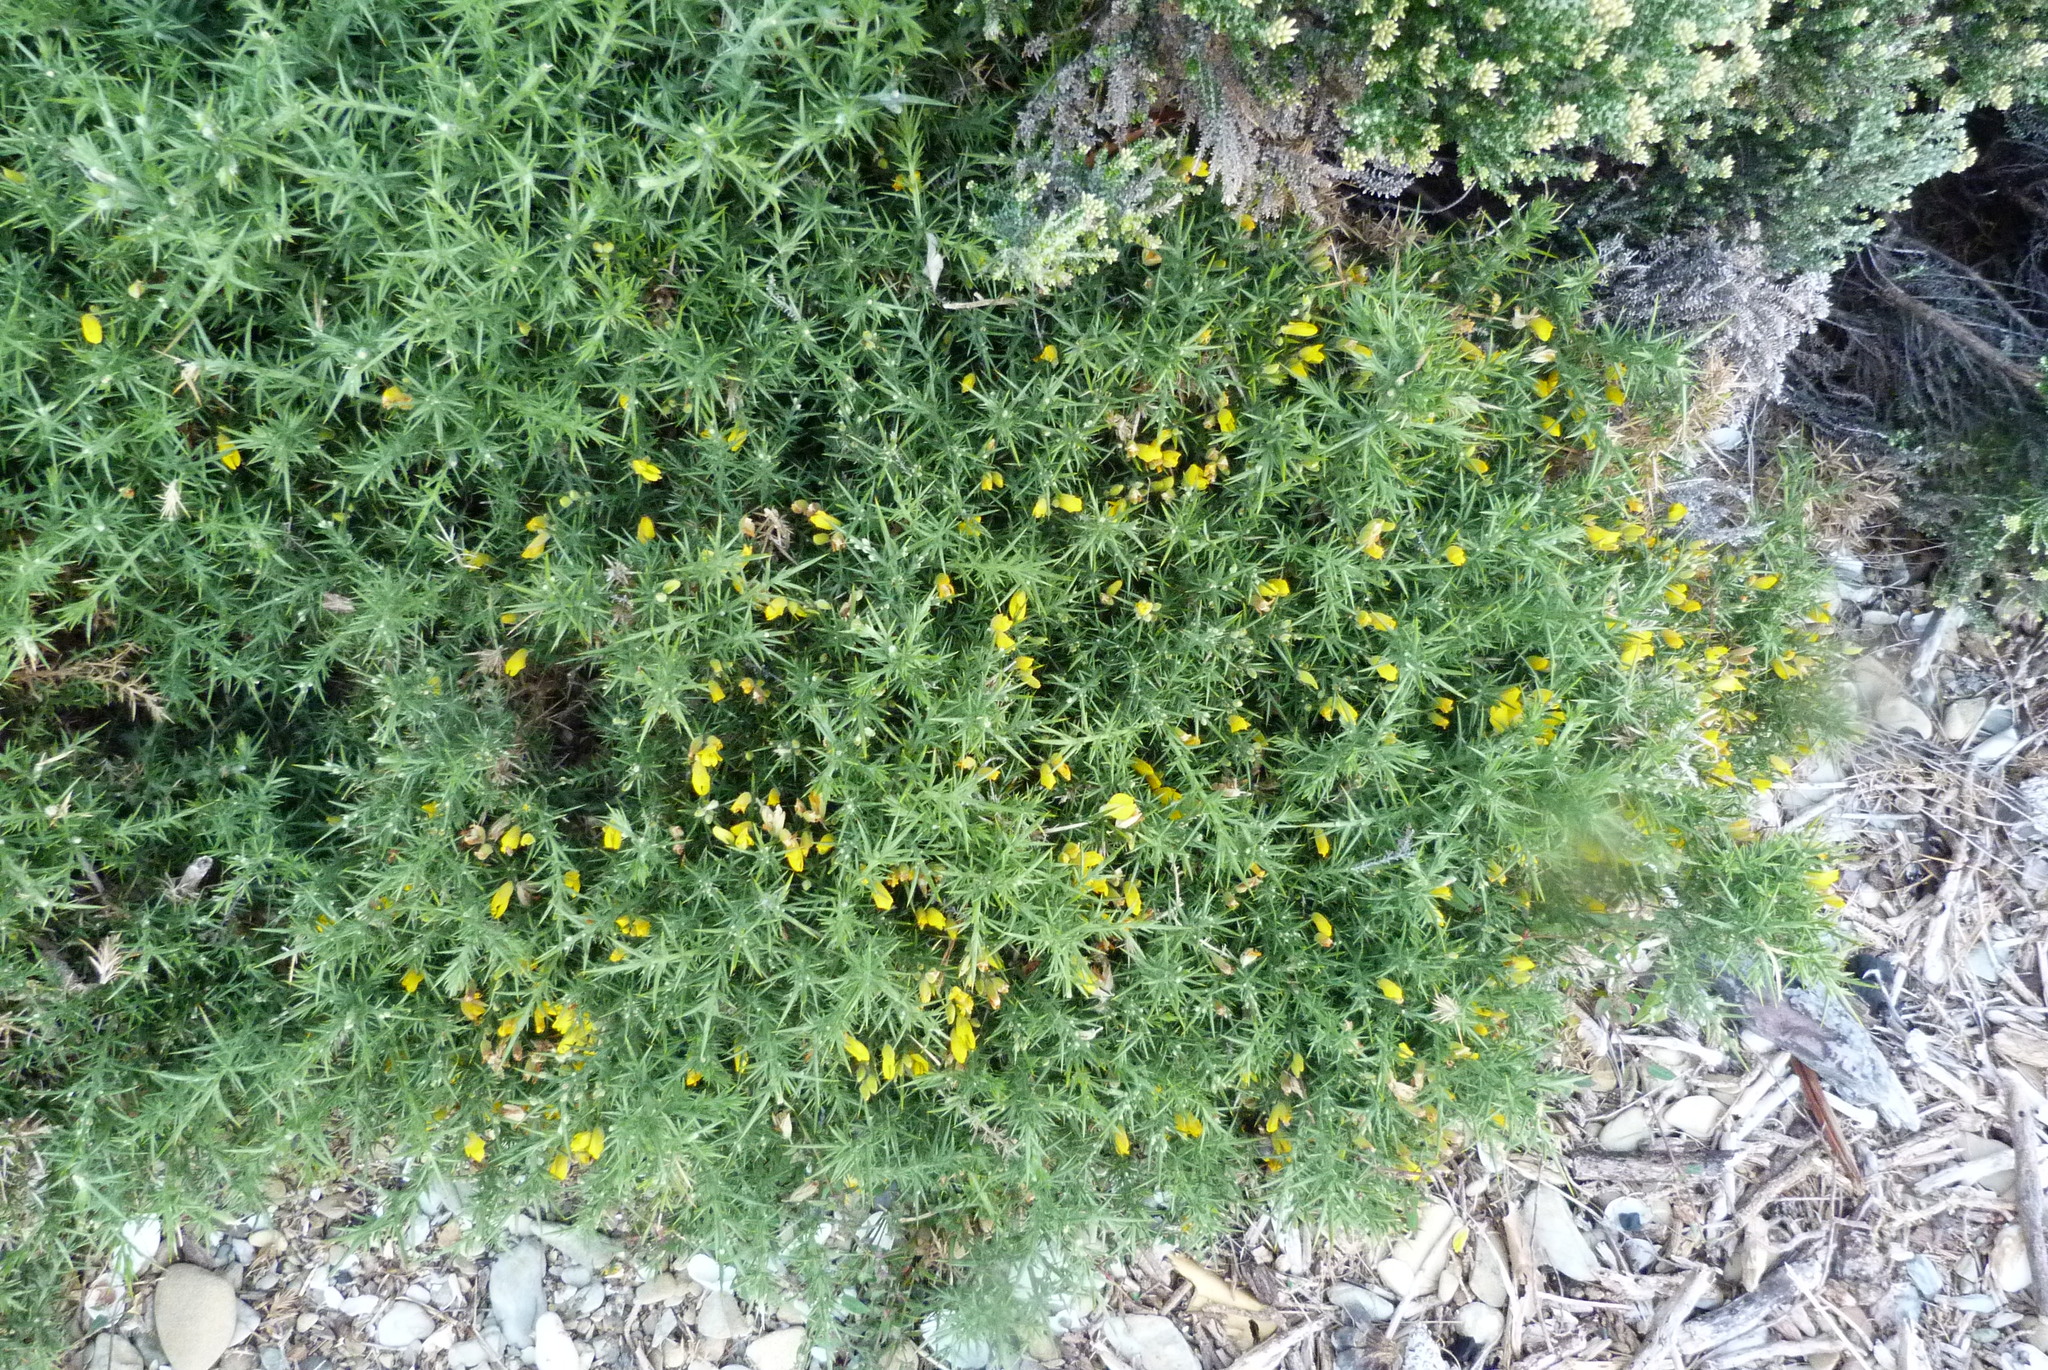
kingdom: Plantae
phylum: Tracheophyta
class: Magnoliopsida
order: Fabales
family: Fabaceae
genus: Ulex
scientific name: Ulex europaeus
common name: Common gorse
